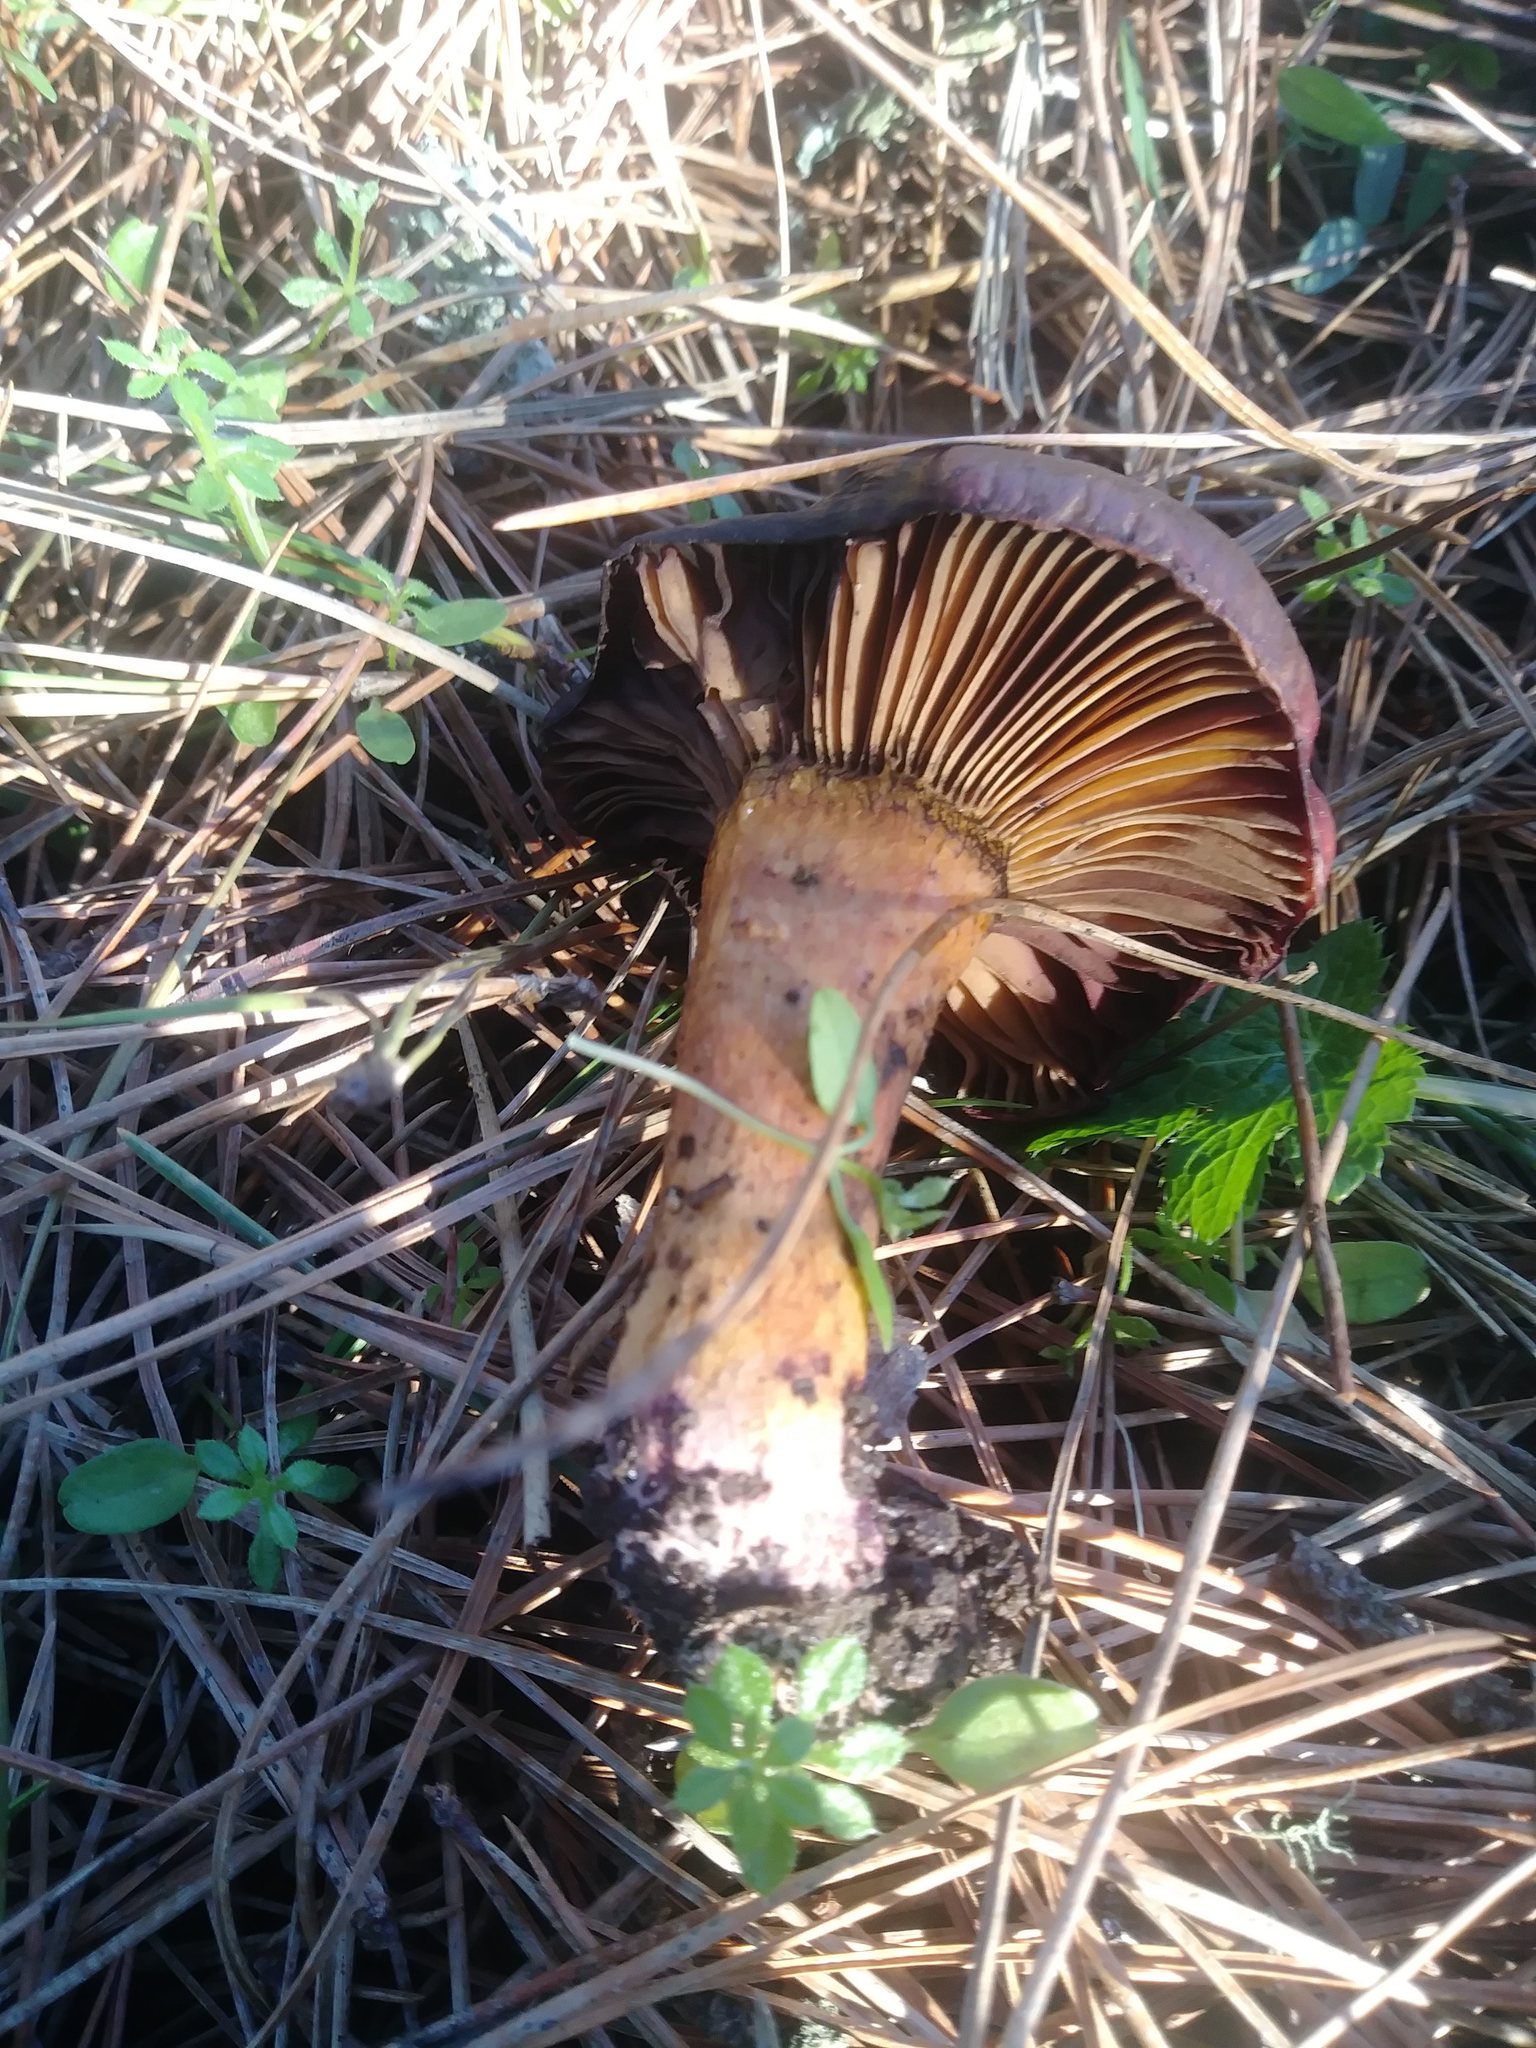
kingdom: Fungi
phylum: Basidiomycota
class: Agaricomycetes
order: Boletales
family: Gomphidiaceae
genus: Chroogomphus
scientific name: Chroogomphus vinicolor
